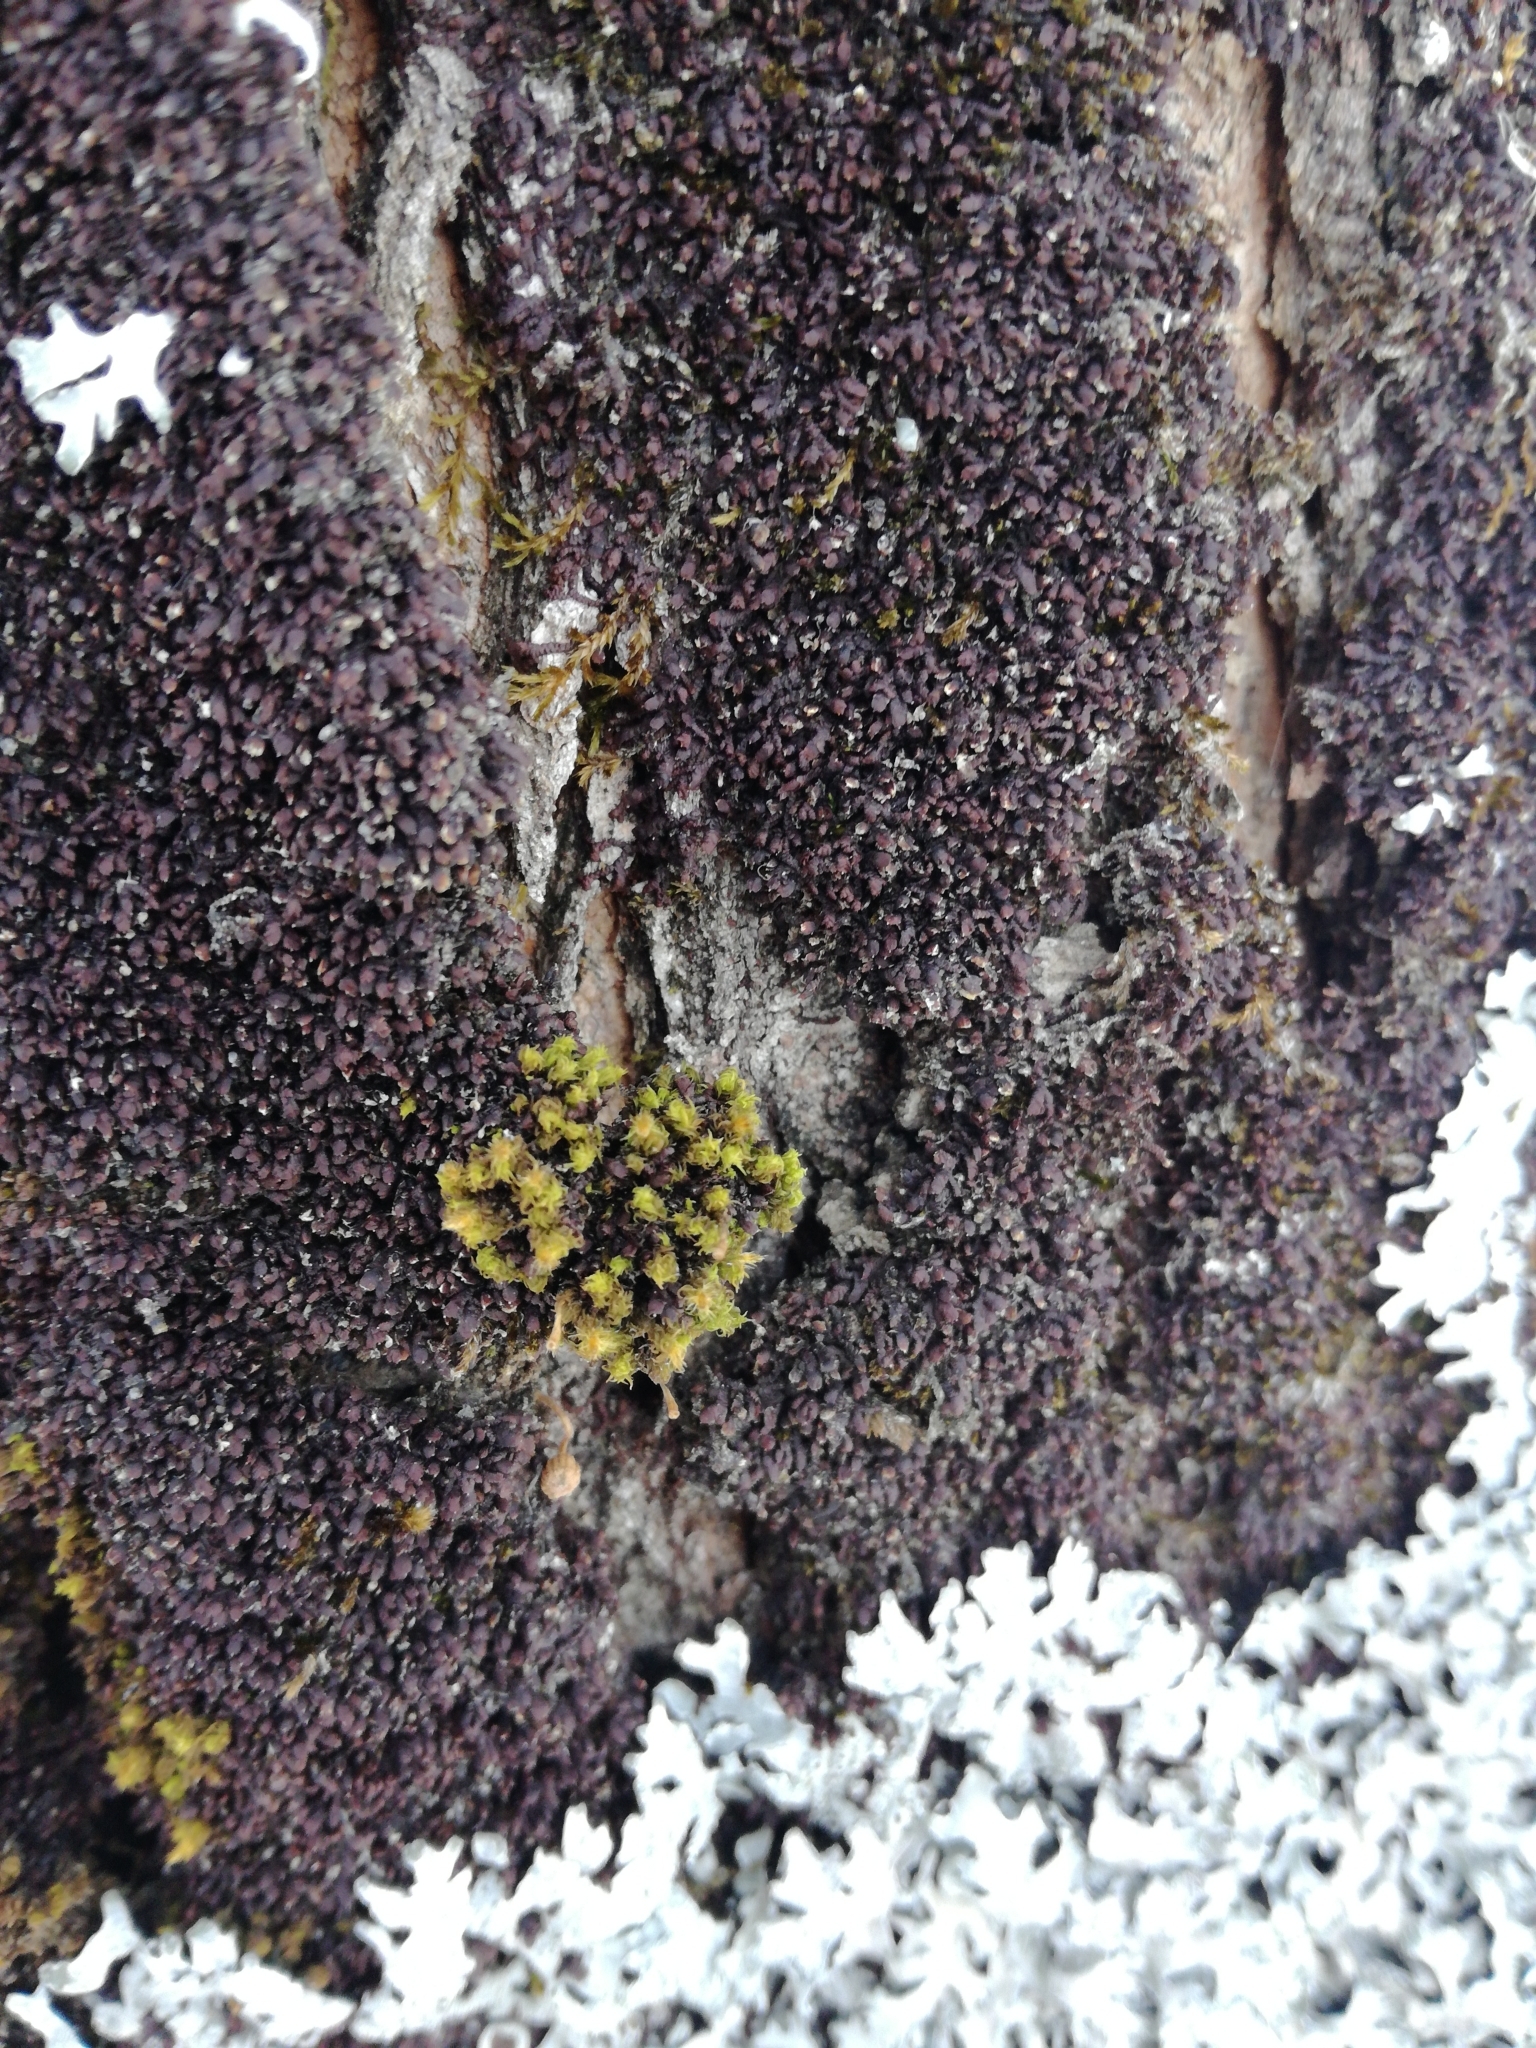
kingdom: Plantae
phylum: Bryophyta
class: Bryopsida
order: Orthotrichales
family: Orthotrichaceae
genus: Ulota
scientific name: Ulota crispa
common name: Crisped pincushion moss
